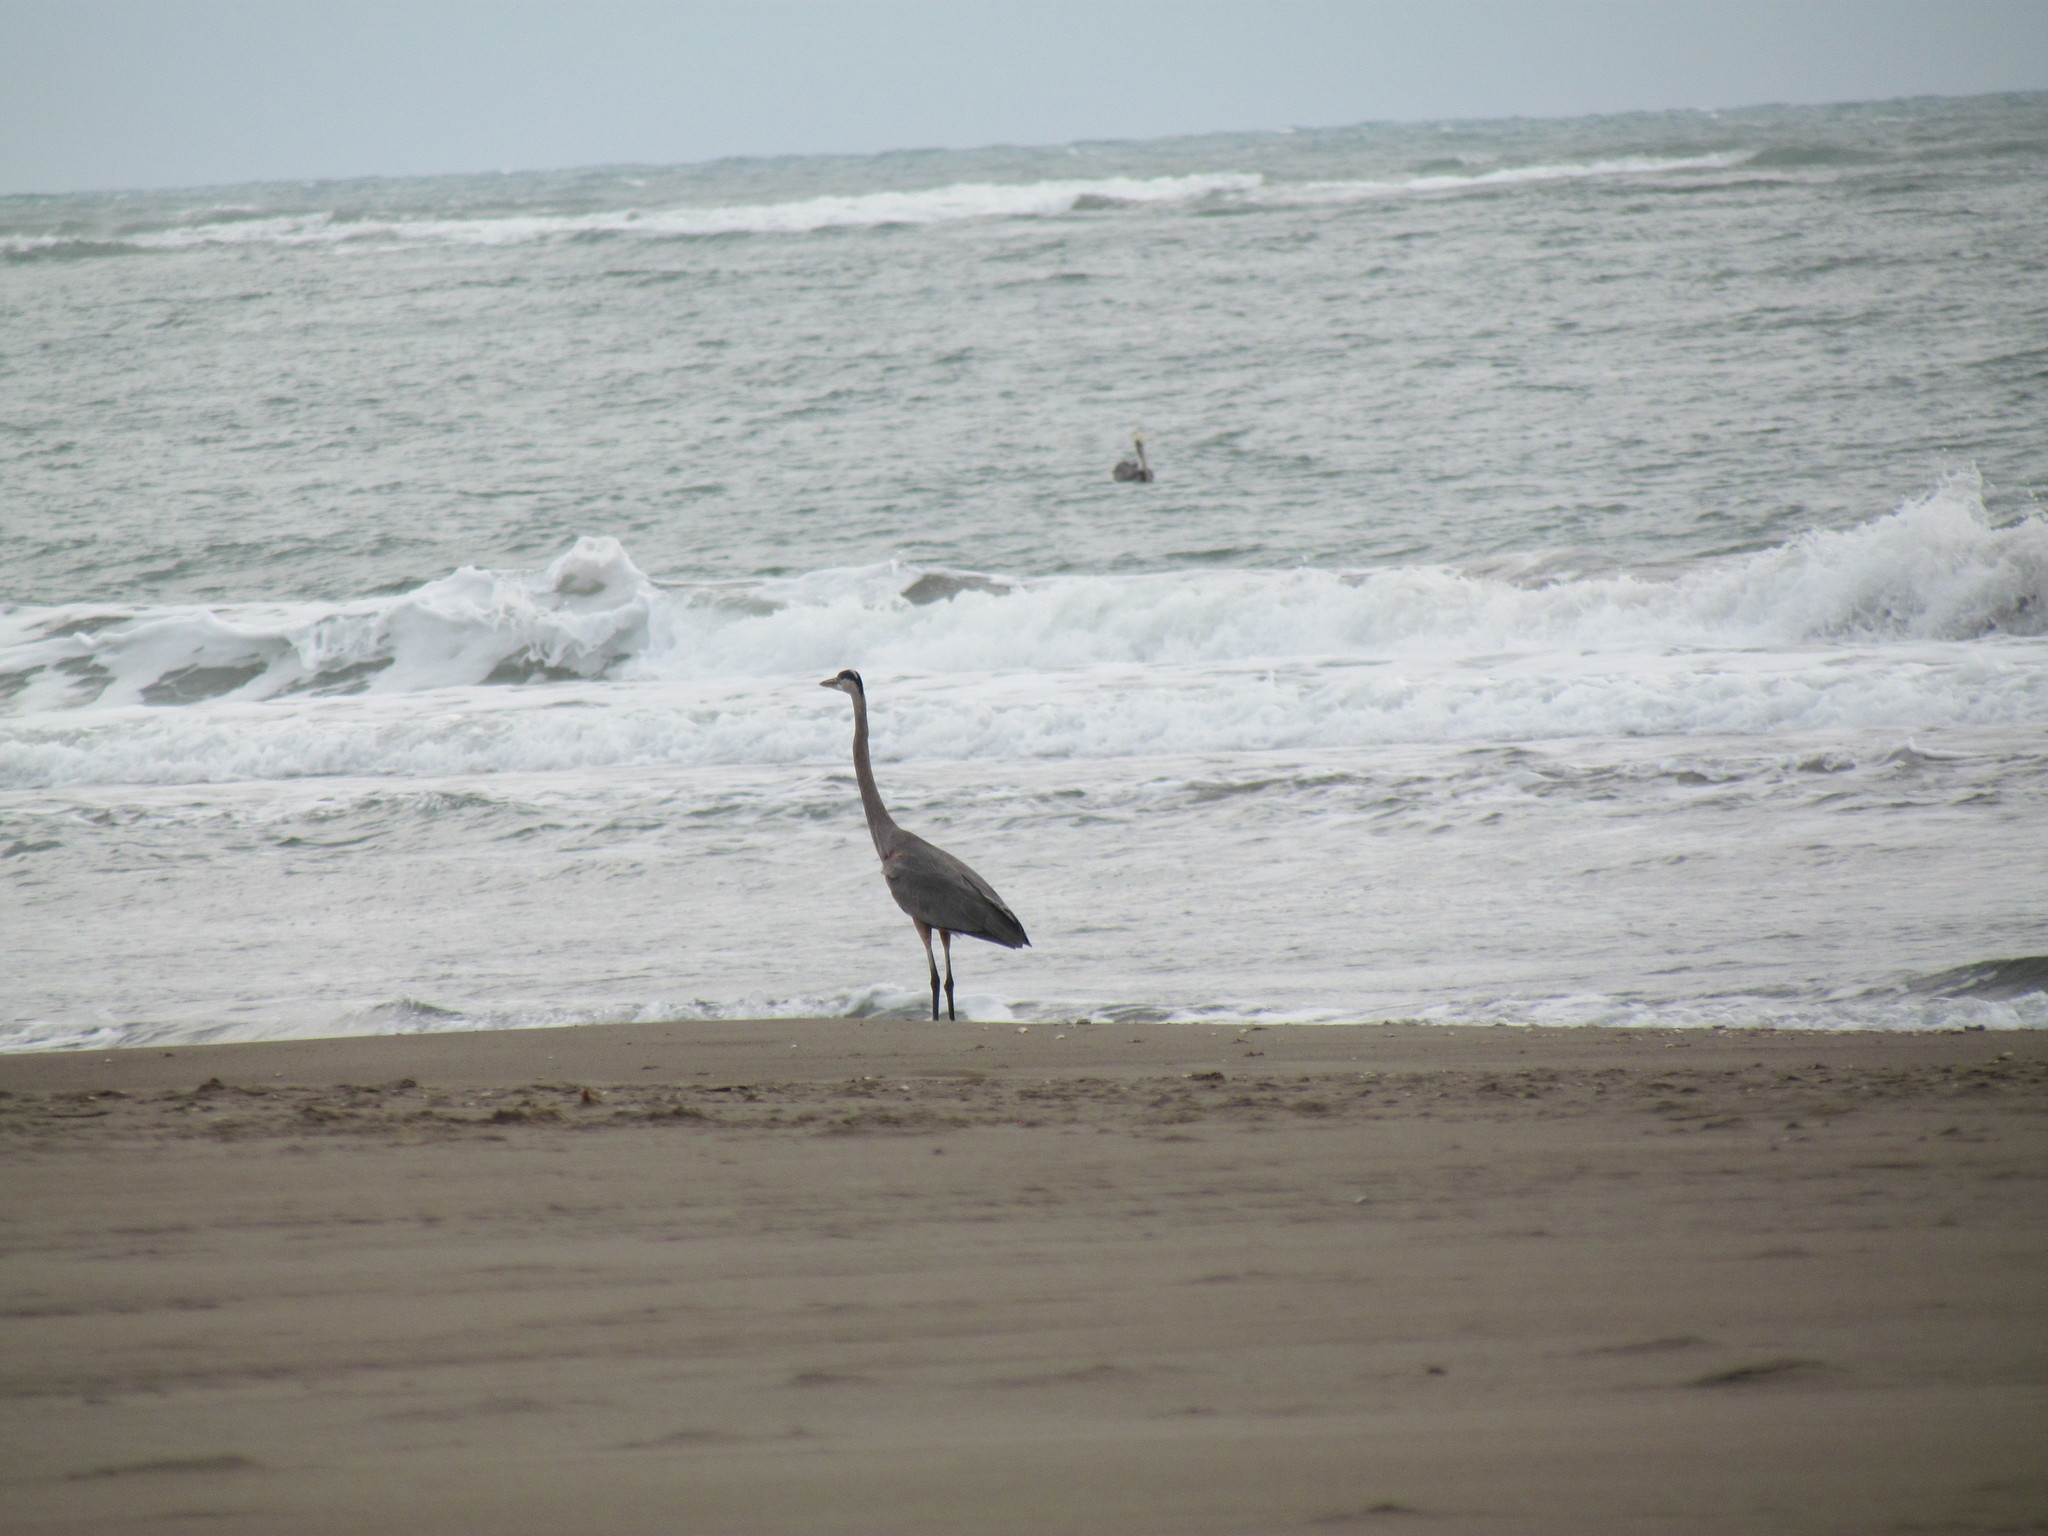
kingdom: Animalia
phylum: Chordata
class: Aves
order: Pelecaniformes
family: Ardeidae
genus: Ardea
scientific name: Ardea herodias
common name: Great blue heron
